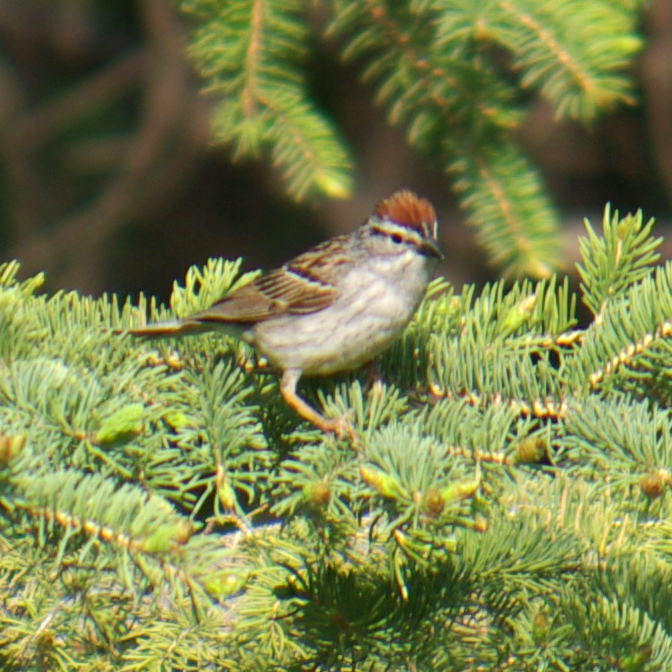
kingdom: Animalia
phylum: Chordata
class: Aves
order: Passeriformes
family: Passerellidae
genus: Spizella
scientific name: Spizella passerina
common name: Chipping sparrow
